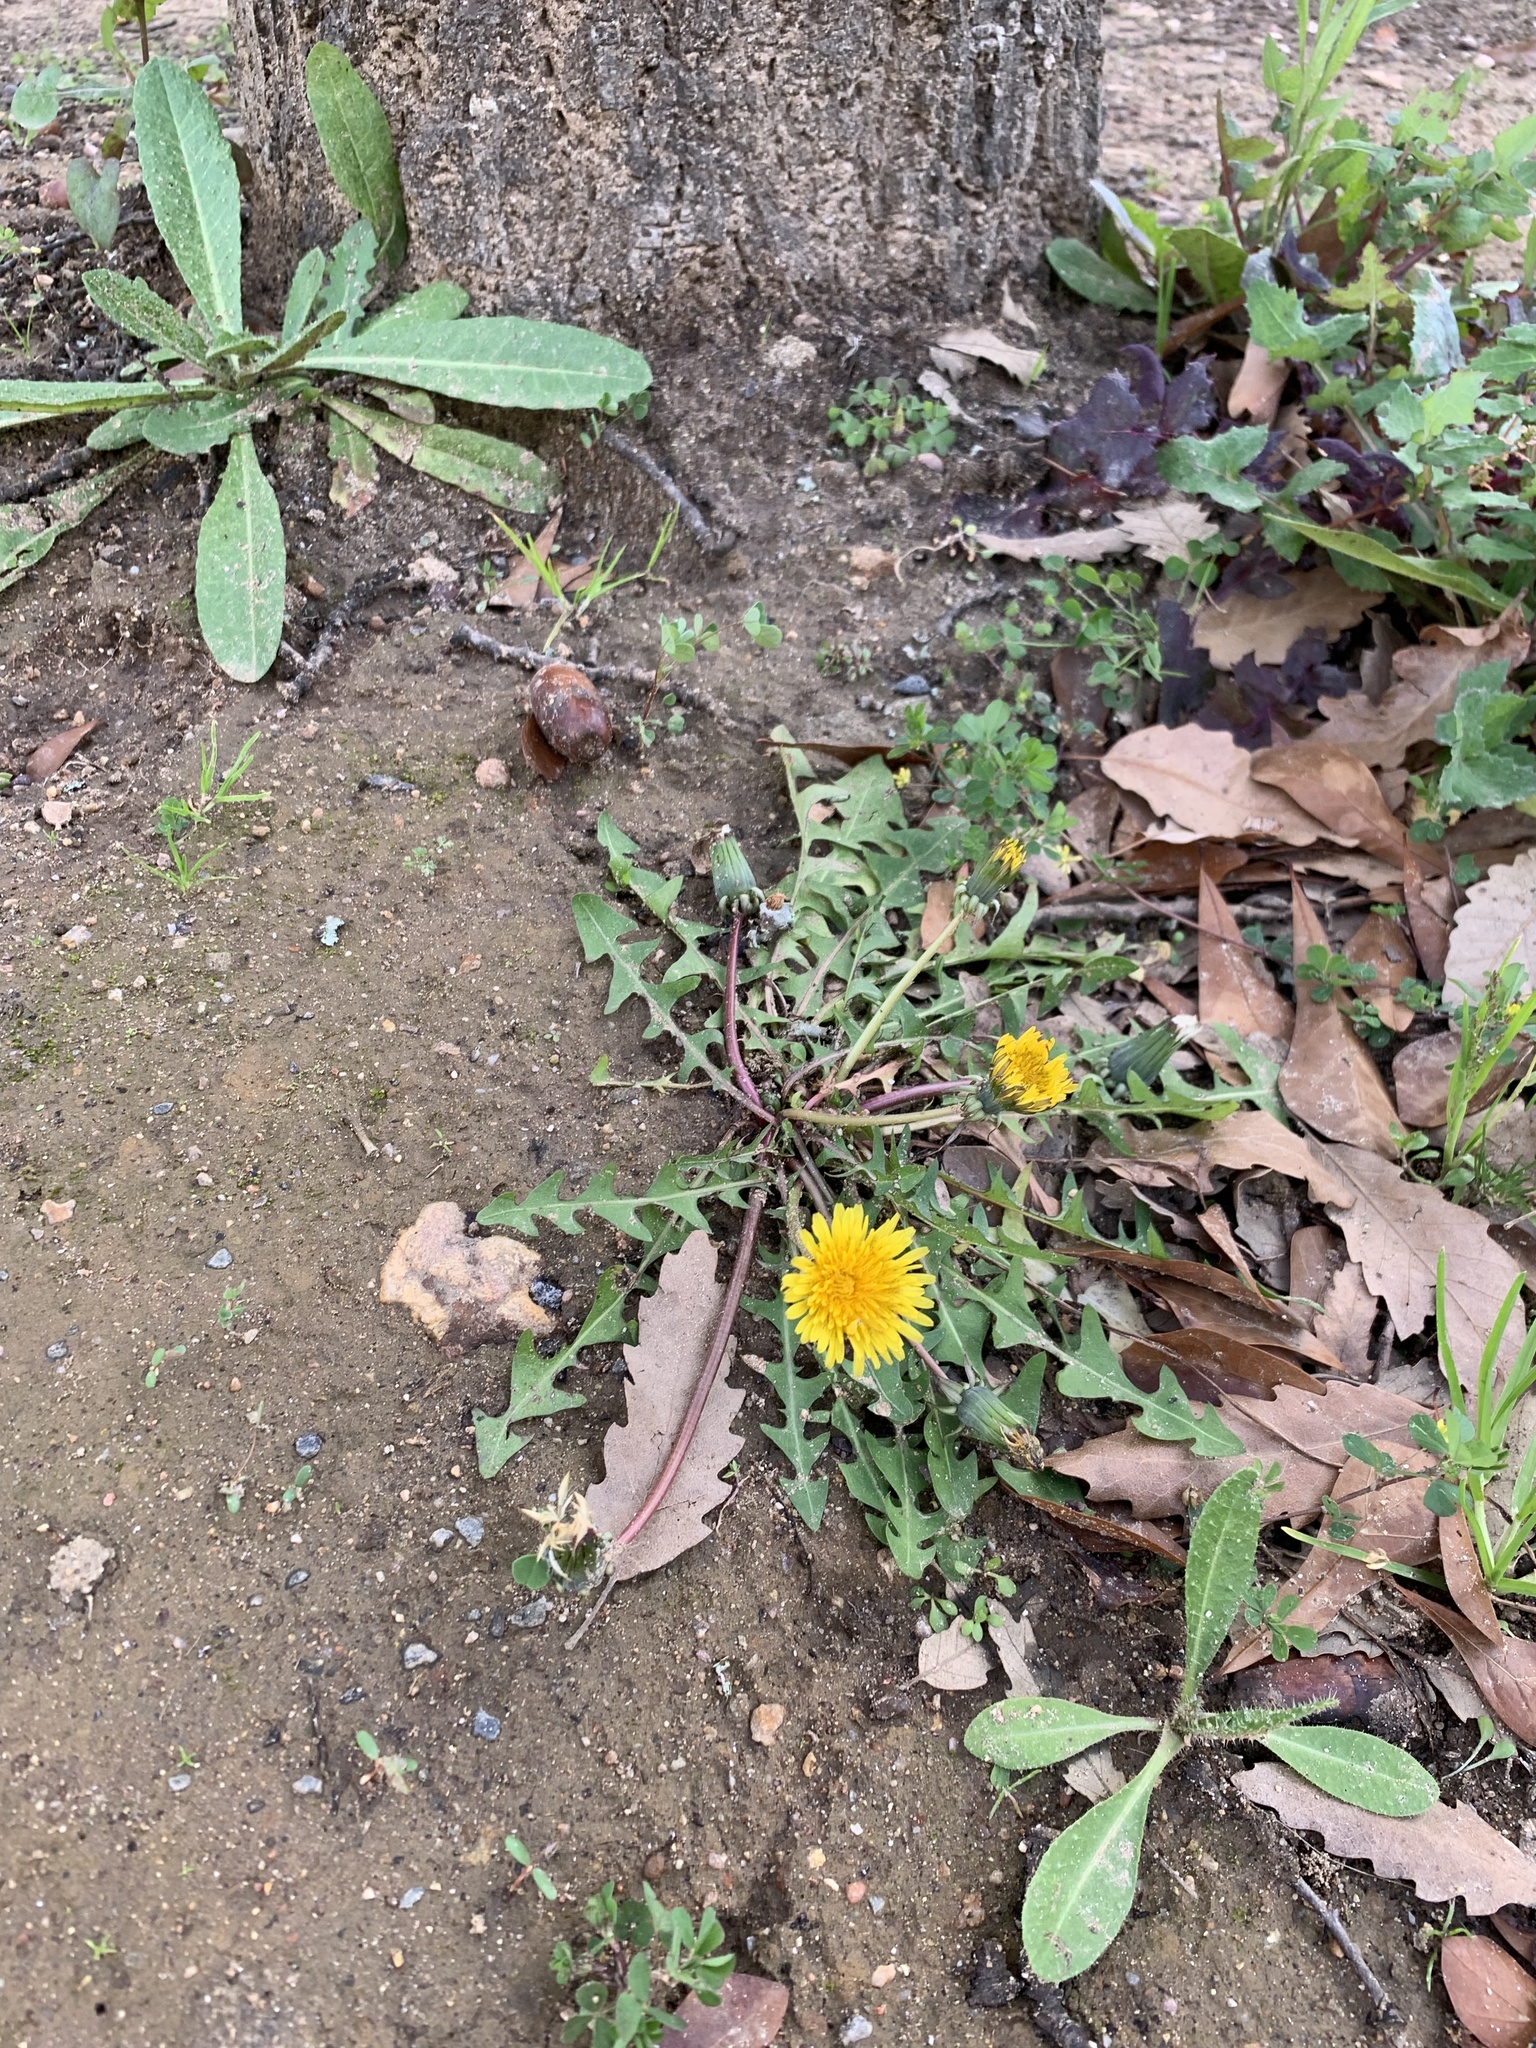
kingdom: Plantae
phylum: Tracheophyta
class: Magnoliopsida
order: Asterales
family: Asteraceae
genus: Taraxacum
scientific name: Taraxacum officinale
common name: Common dandelion
